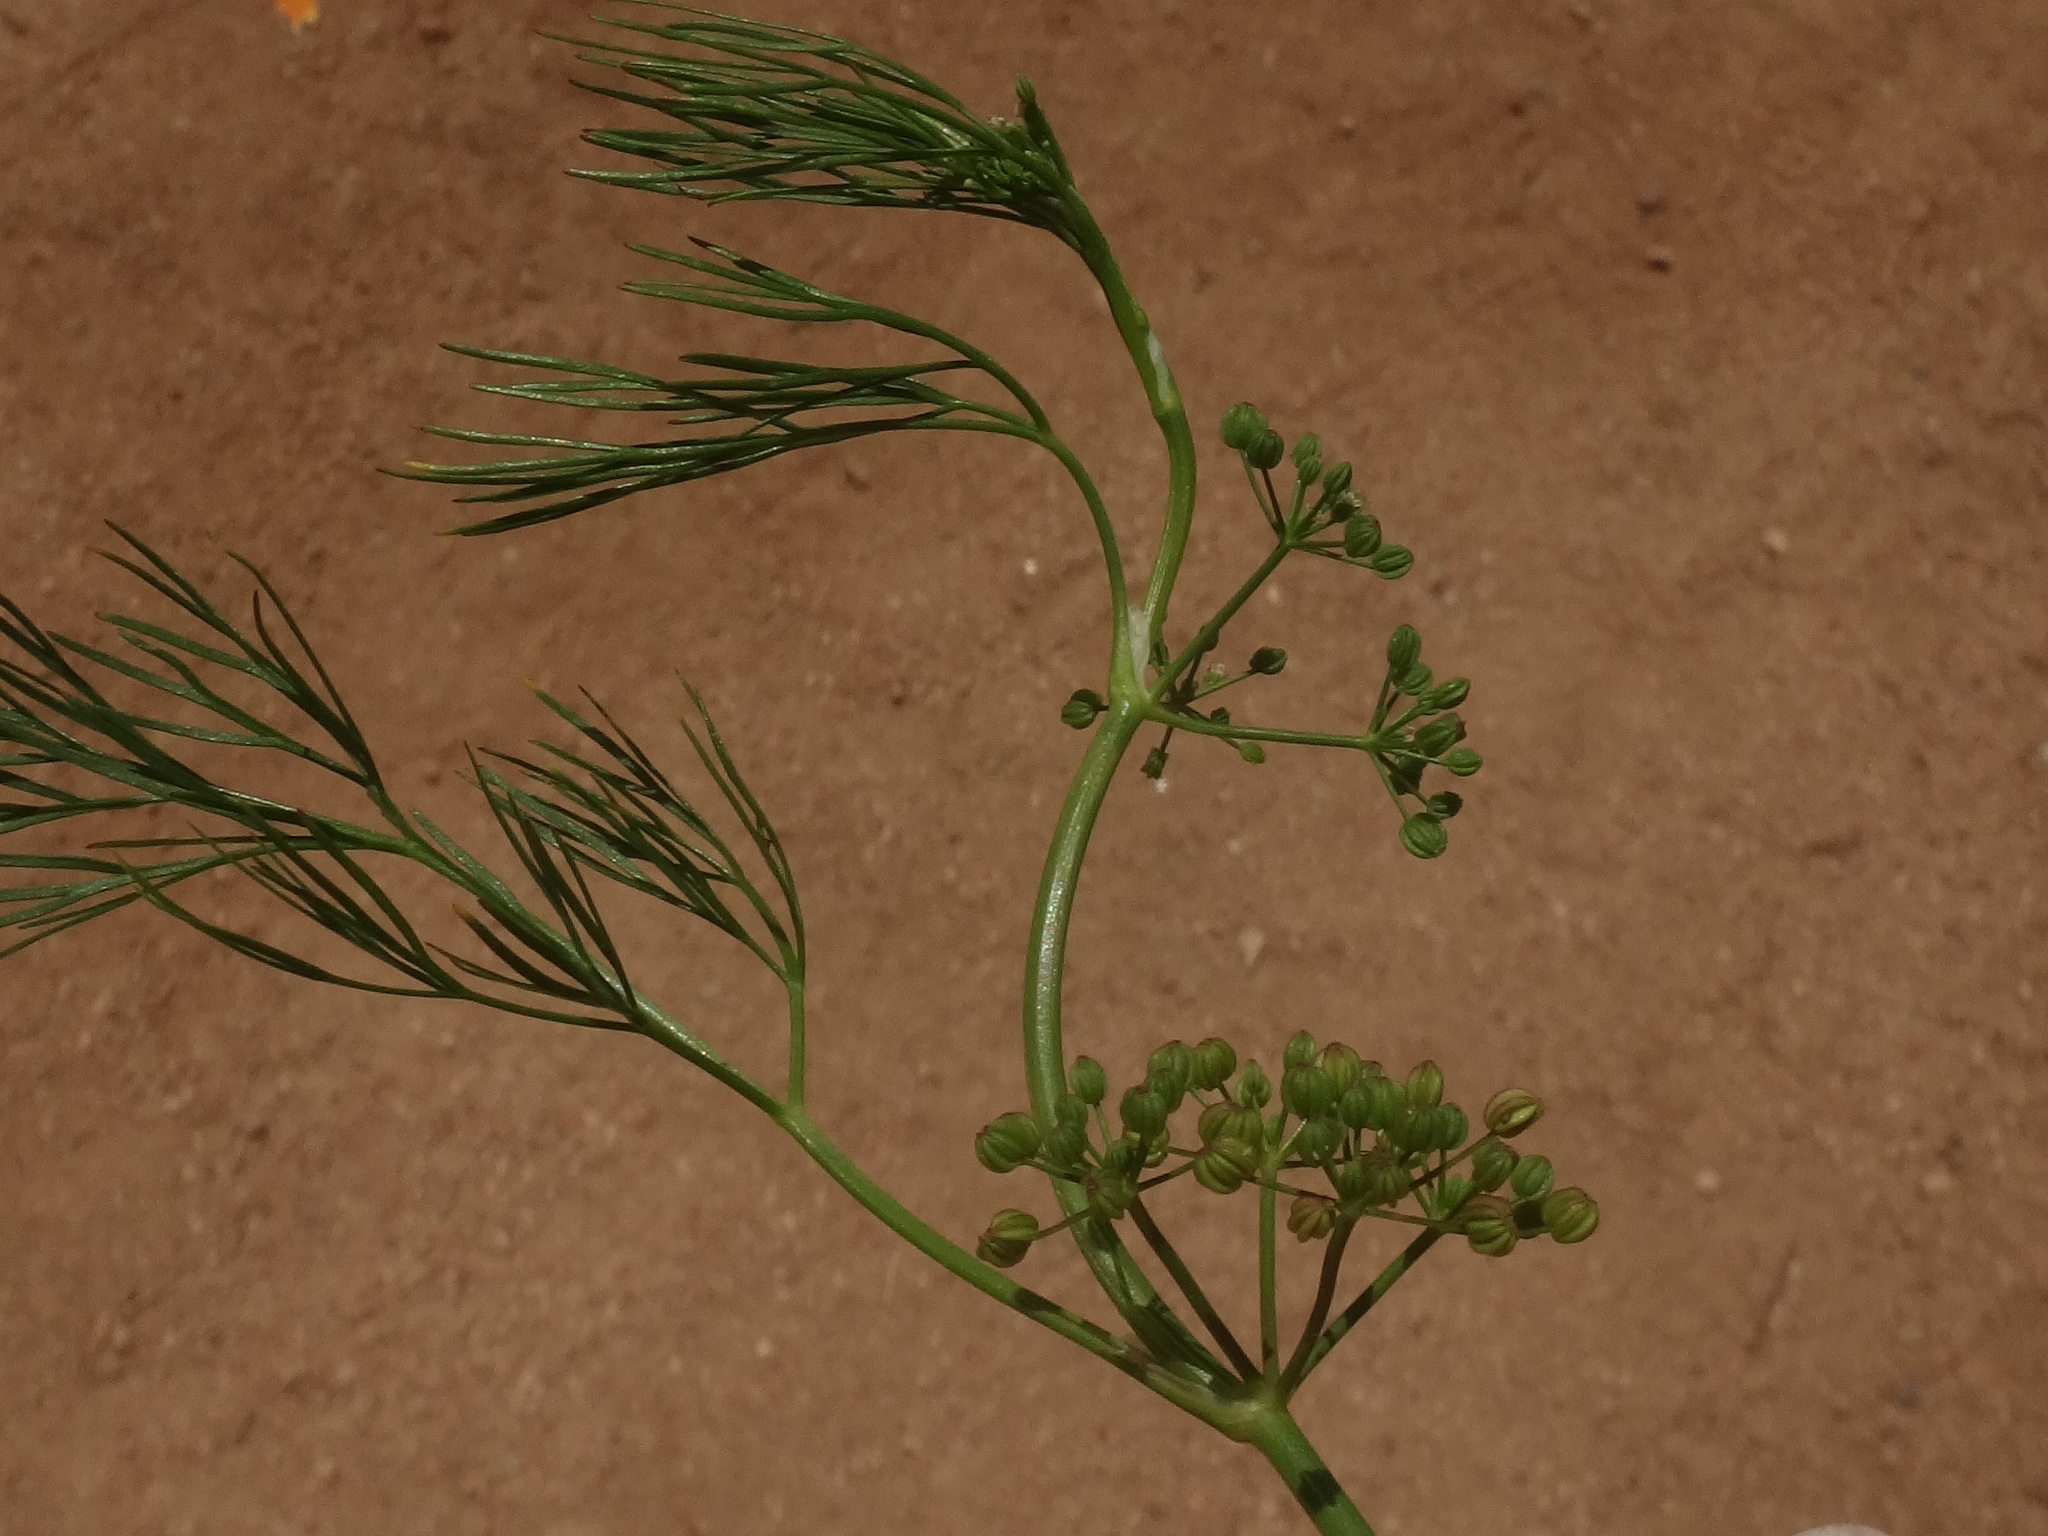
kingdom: Plantae
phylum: Tracheophyta
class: Magnoliopsida
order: Apiales
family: Apiaceae
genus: Cyclospermum
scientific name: Cyclospermum leptophyllum
